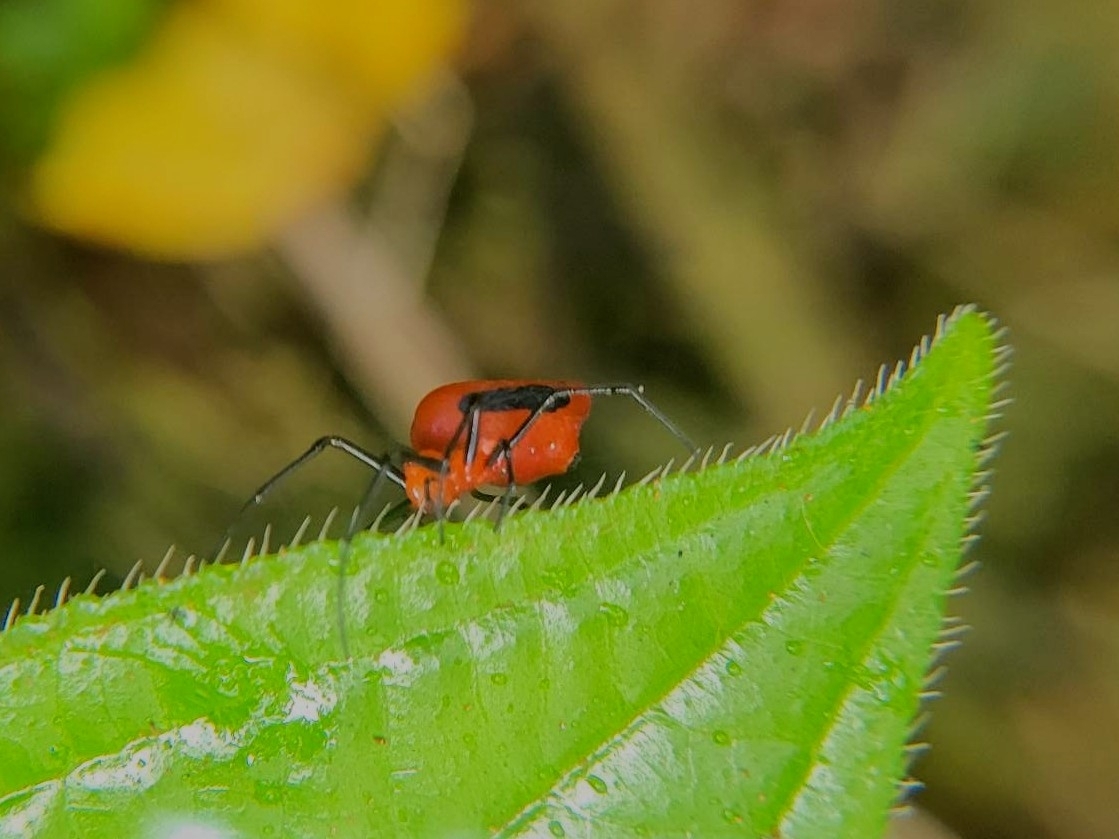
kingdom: Animalia
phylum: Arthropoda
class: Arachnida
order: Araneae
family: Tetragnathidae
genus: Leucauge
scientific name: Leucauge licina
